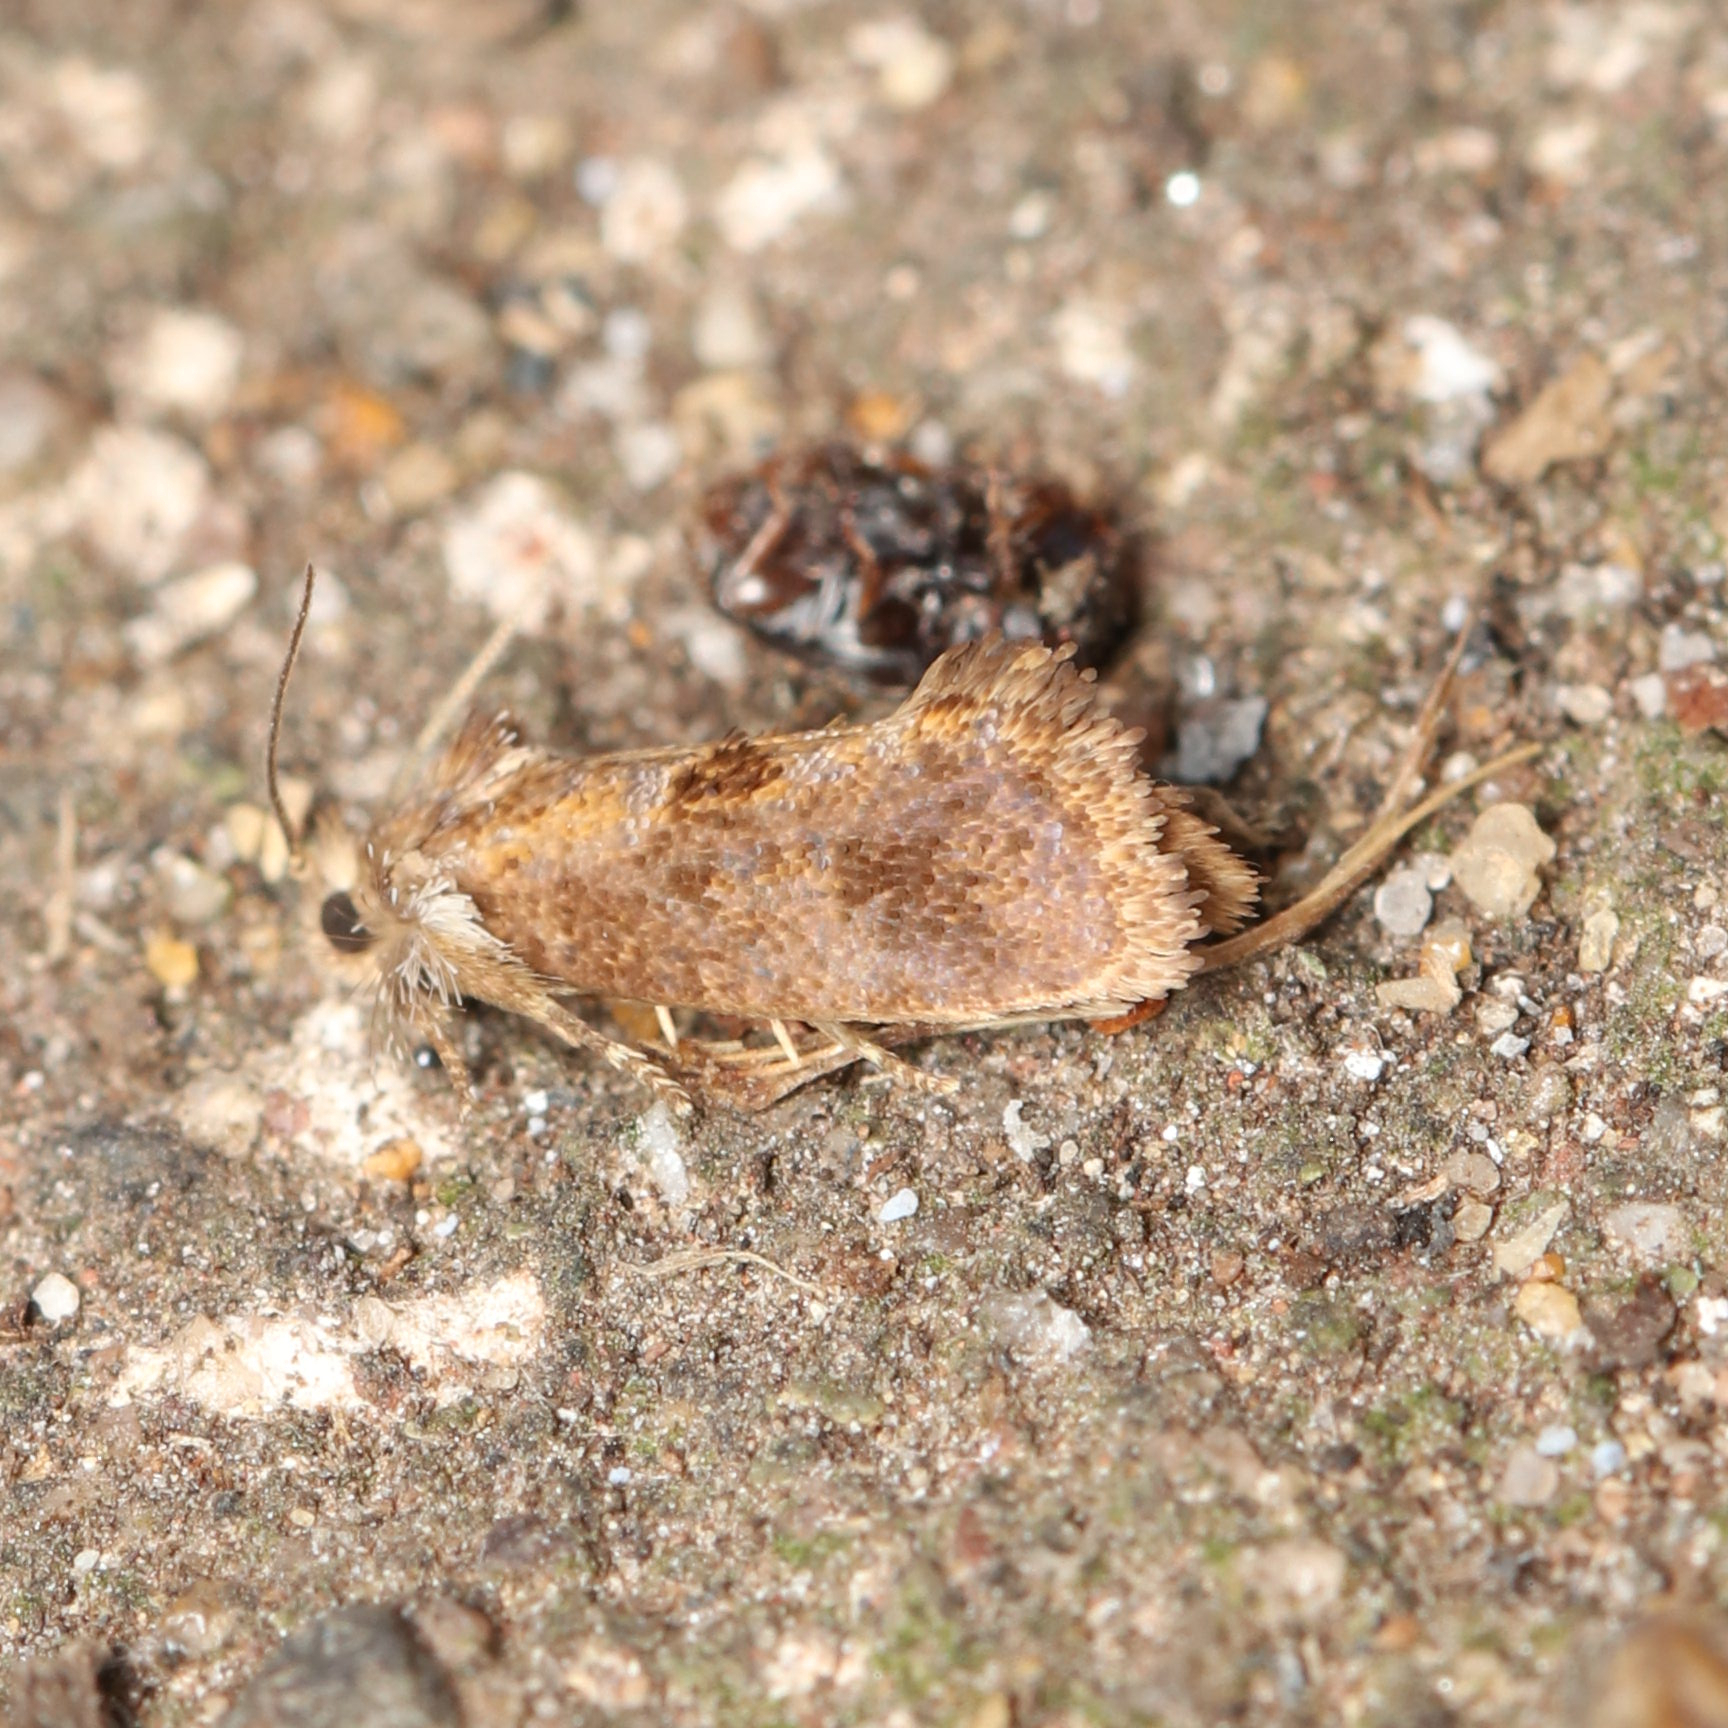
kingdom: Animalia
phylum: Arthropoda
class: Insecta
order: Lepidoptera
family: Tineidae
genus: Acrolophus
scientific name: Acrolophus panamae
